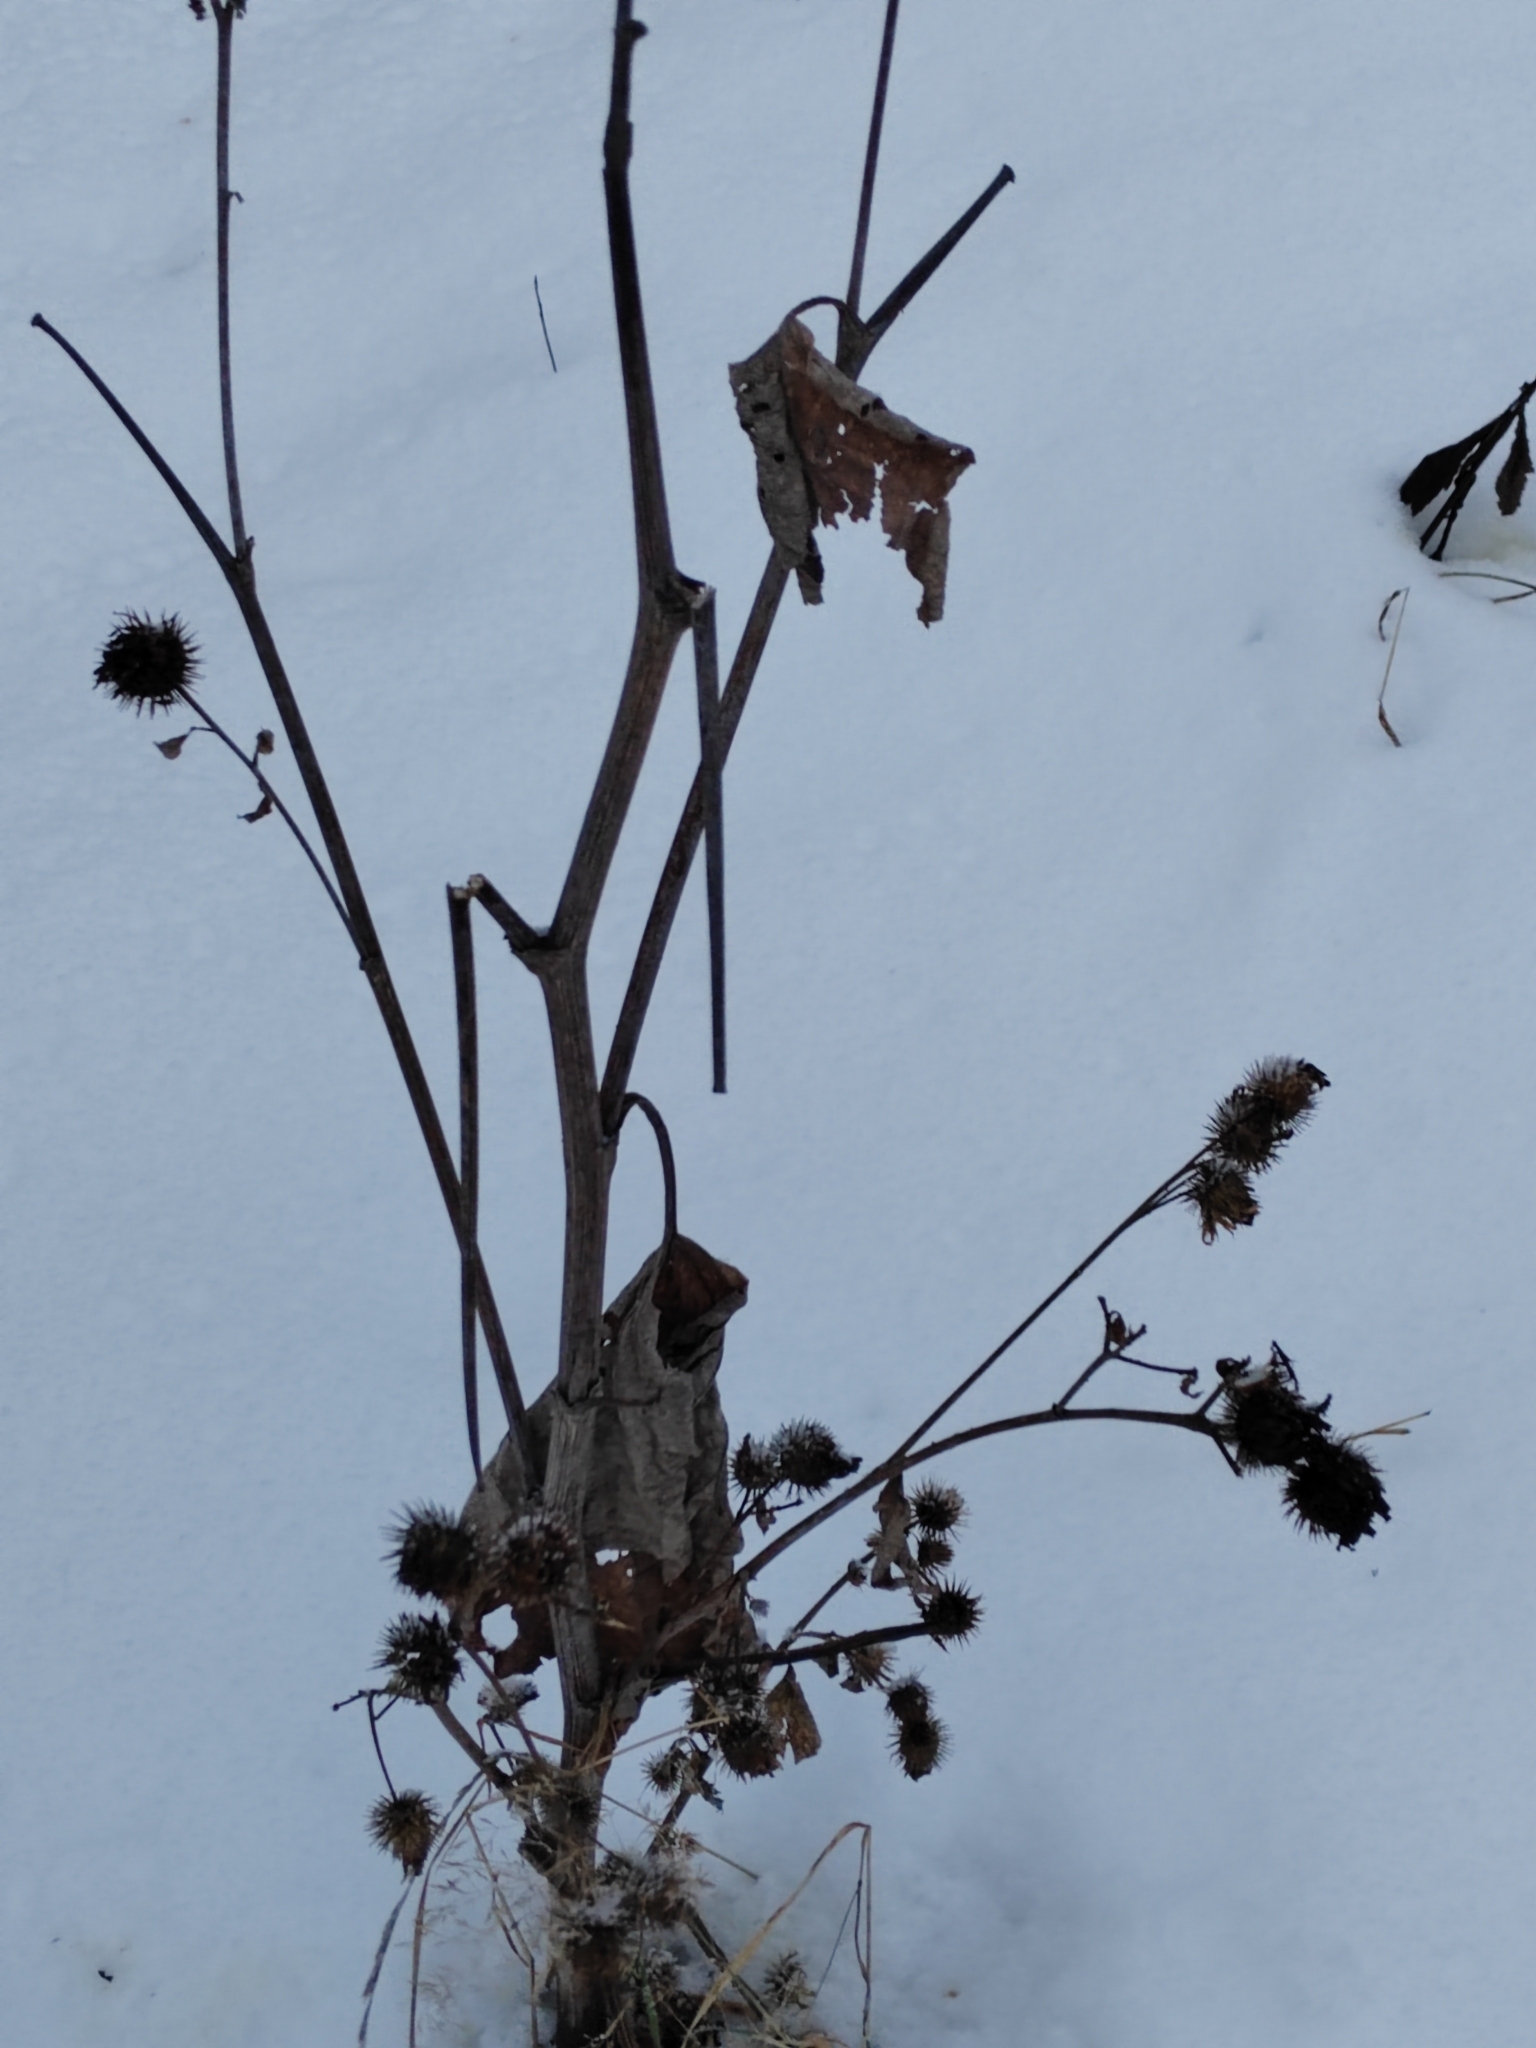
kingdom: Plantae
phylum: Tracheophyta
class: Magnoliopsida
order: Asterales
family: Asteraceae
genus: Arctium
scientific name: Arctium tomentosum
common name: Woolly burdock
